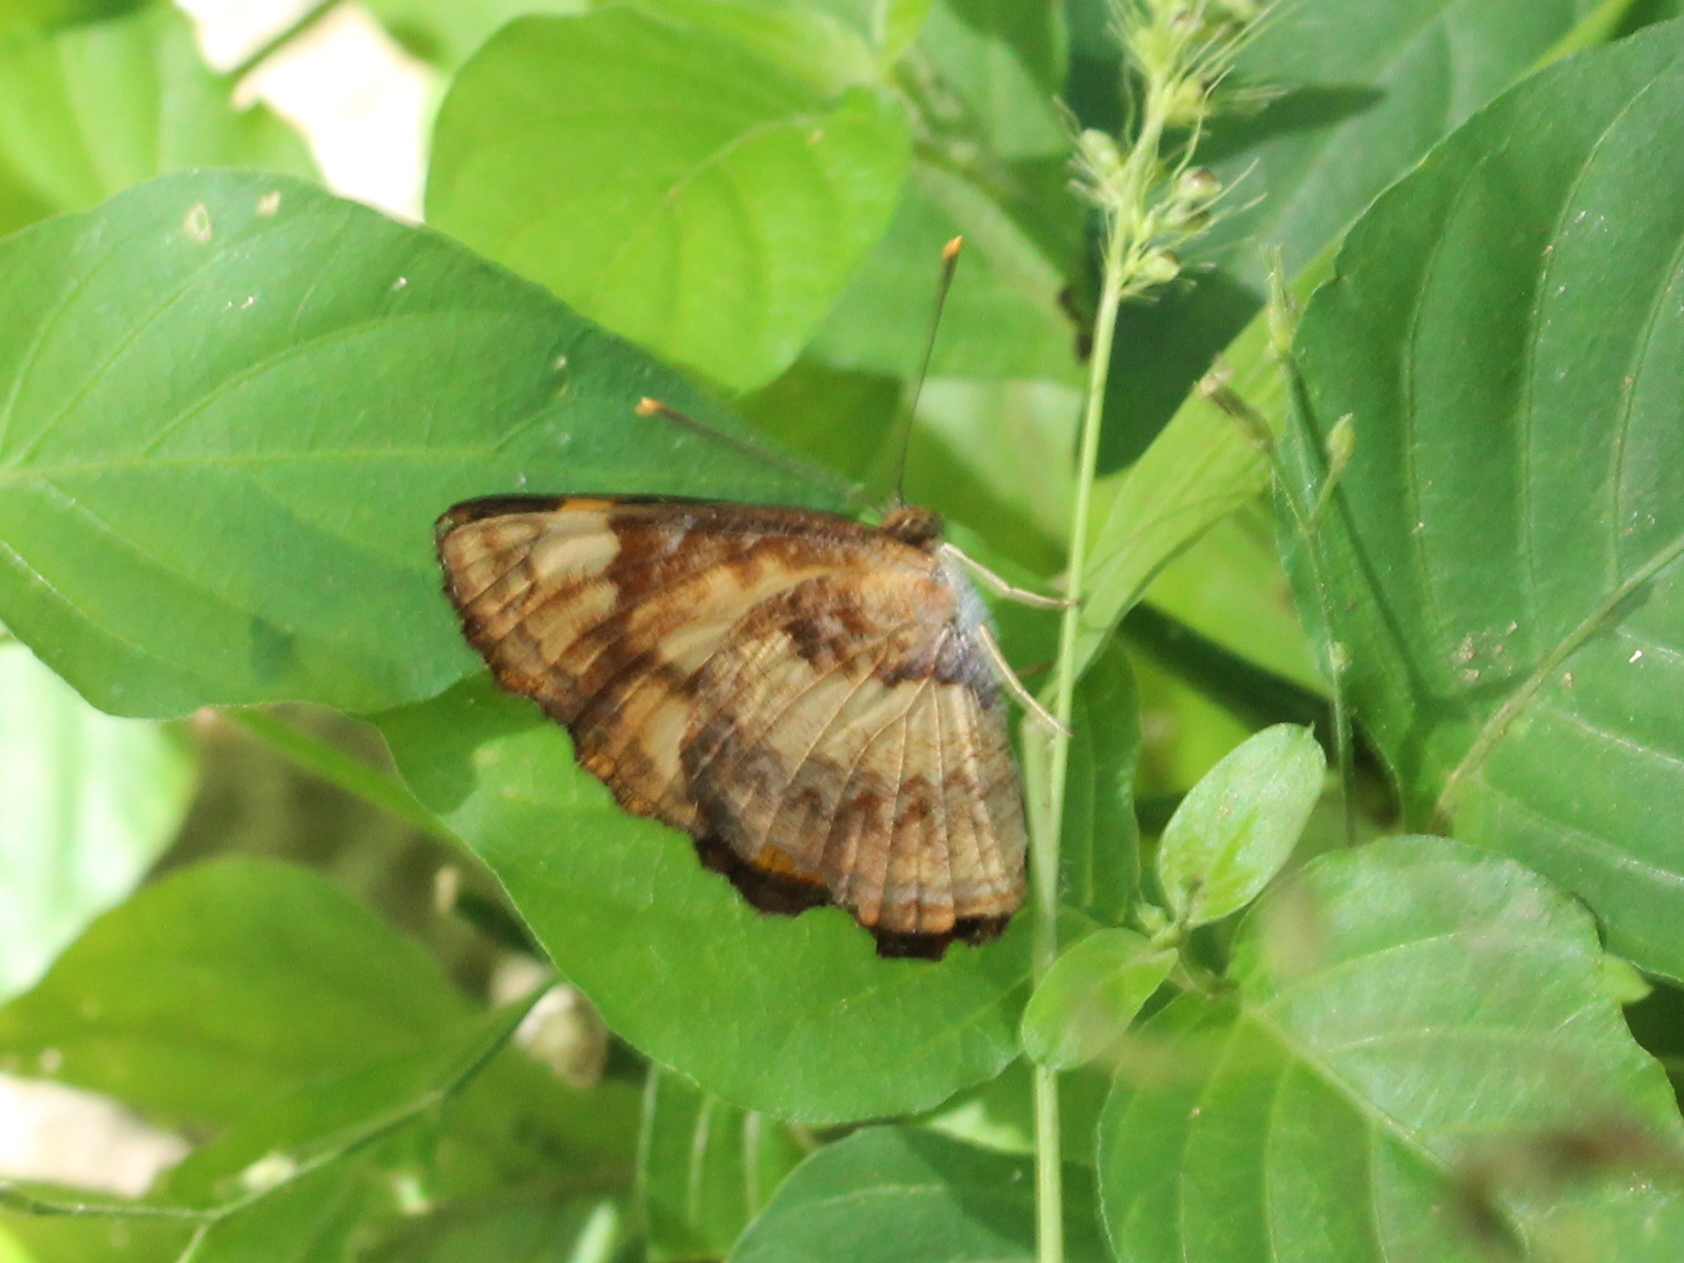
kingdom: Animalia
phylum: Arthropoda
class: Insecta
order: Lepidoptera
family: Nymphalidae
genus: Pantoporia
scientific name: Pantoporia hordonia
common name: Common lascar
